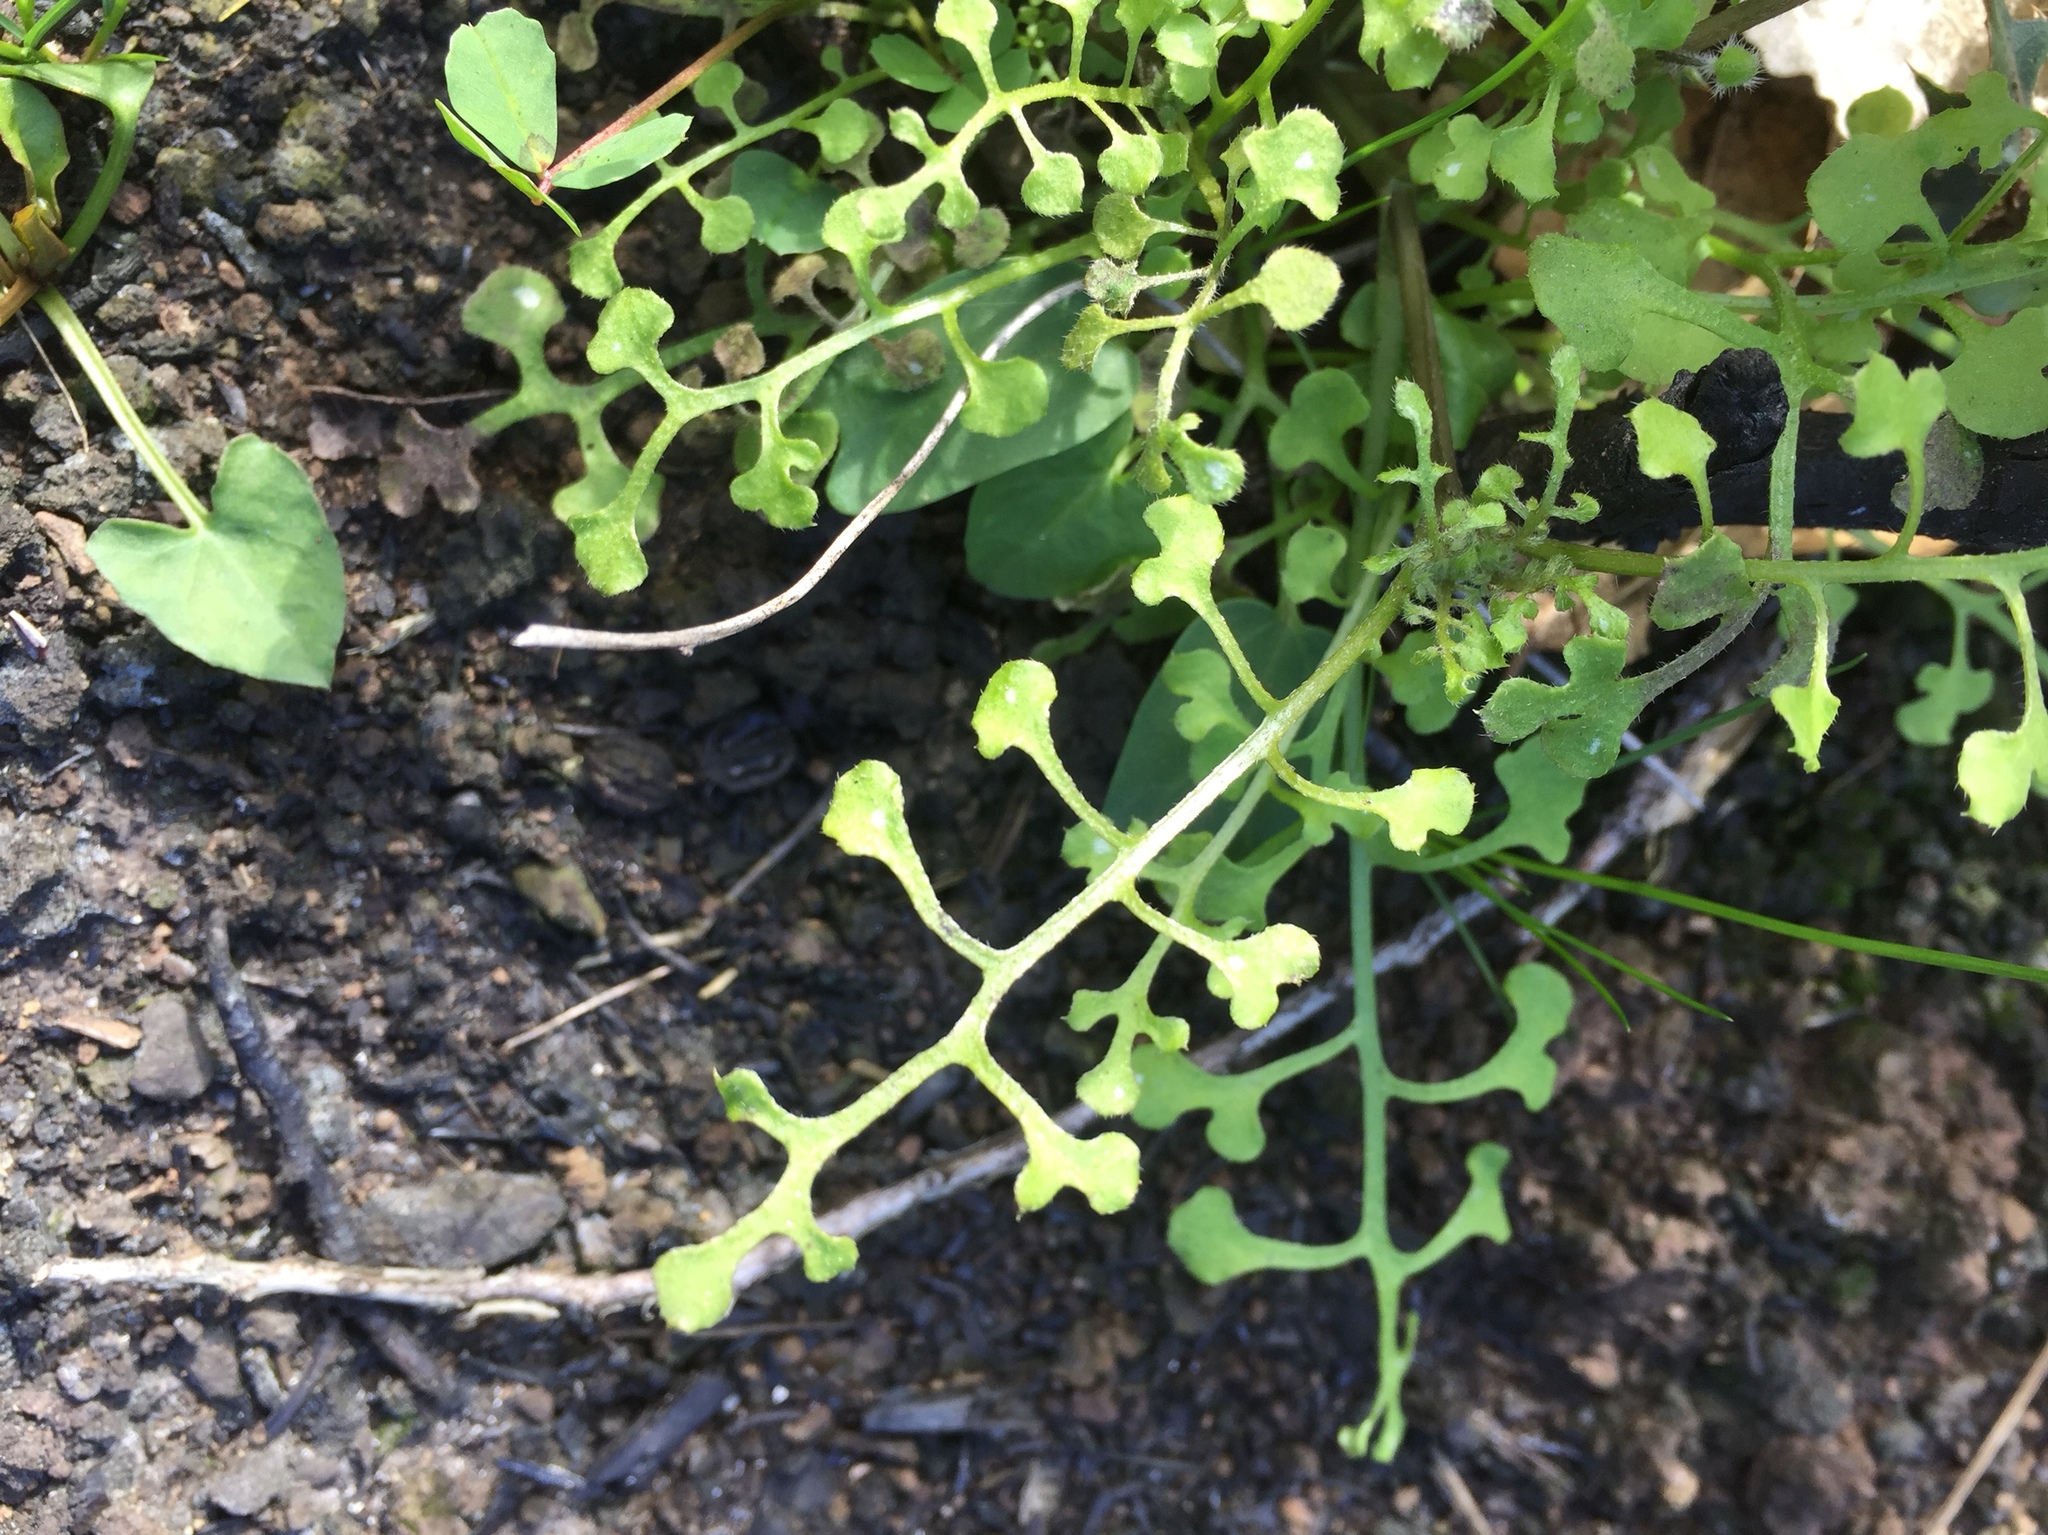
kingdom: Plantae
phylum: Tracheophyta
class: Magnoliopsida
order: Boraginales
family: Hydrophyllaceae
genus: Nemophila
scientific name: Nemophila heterophylla
